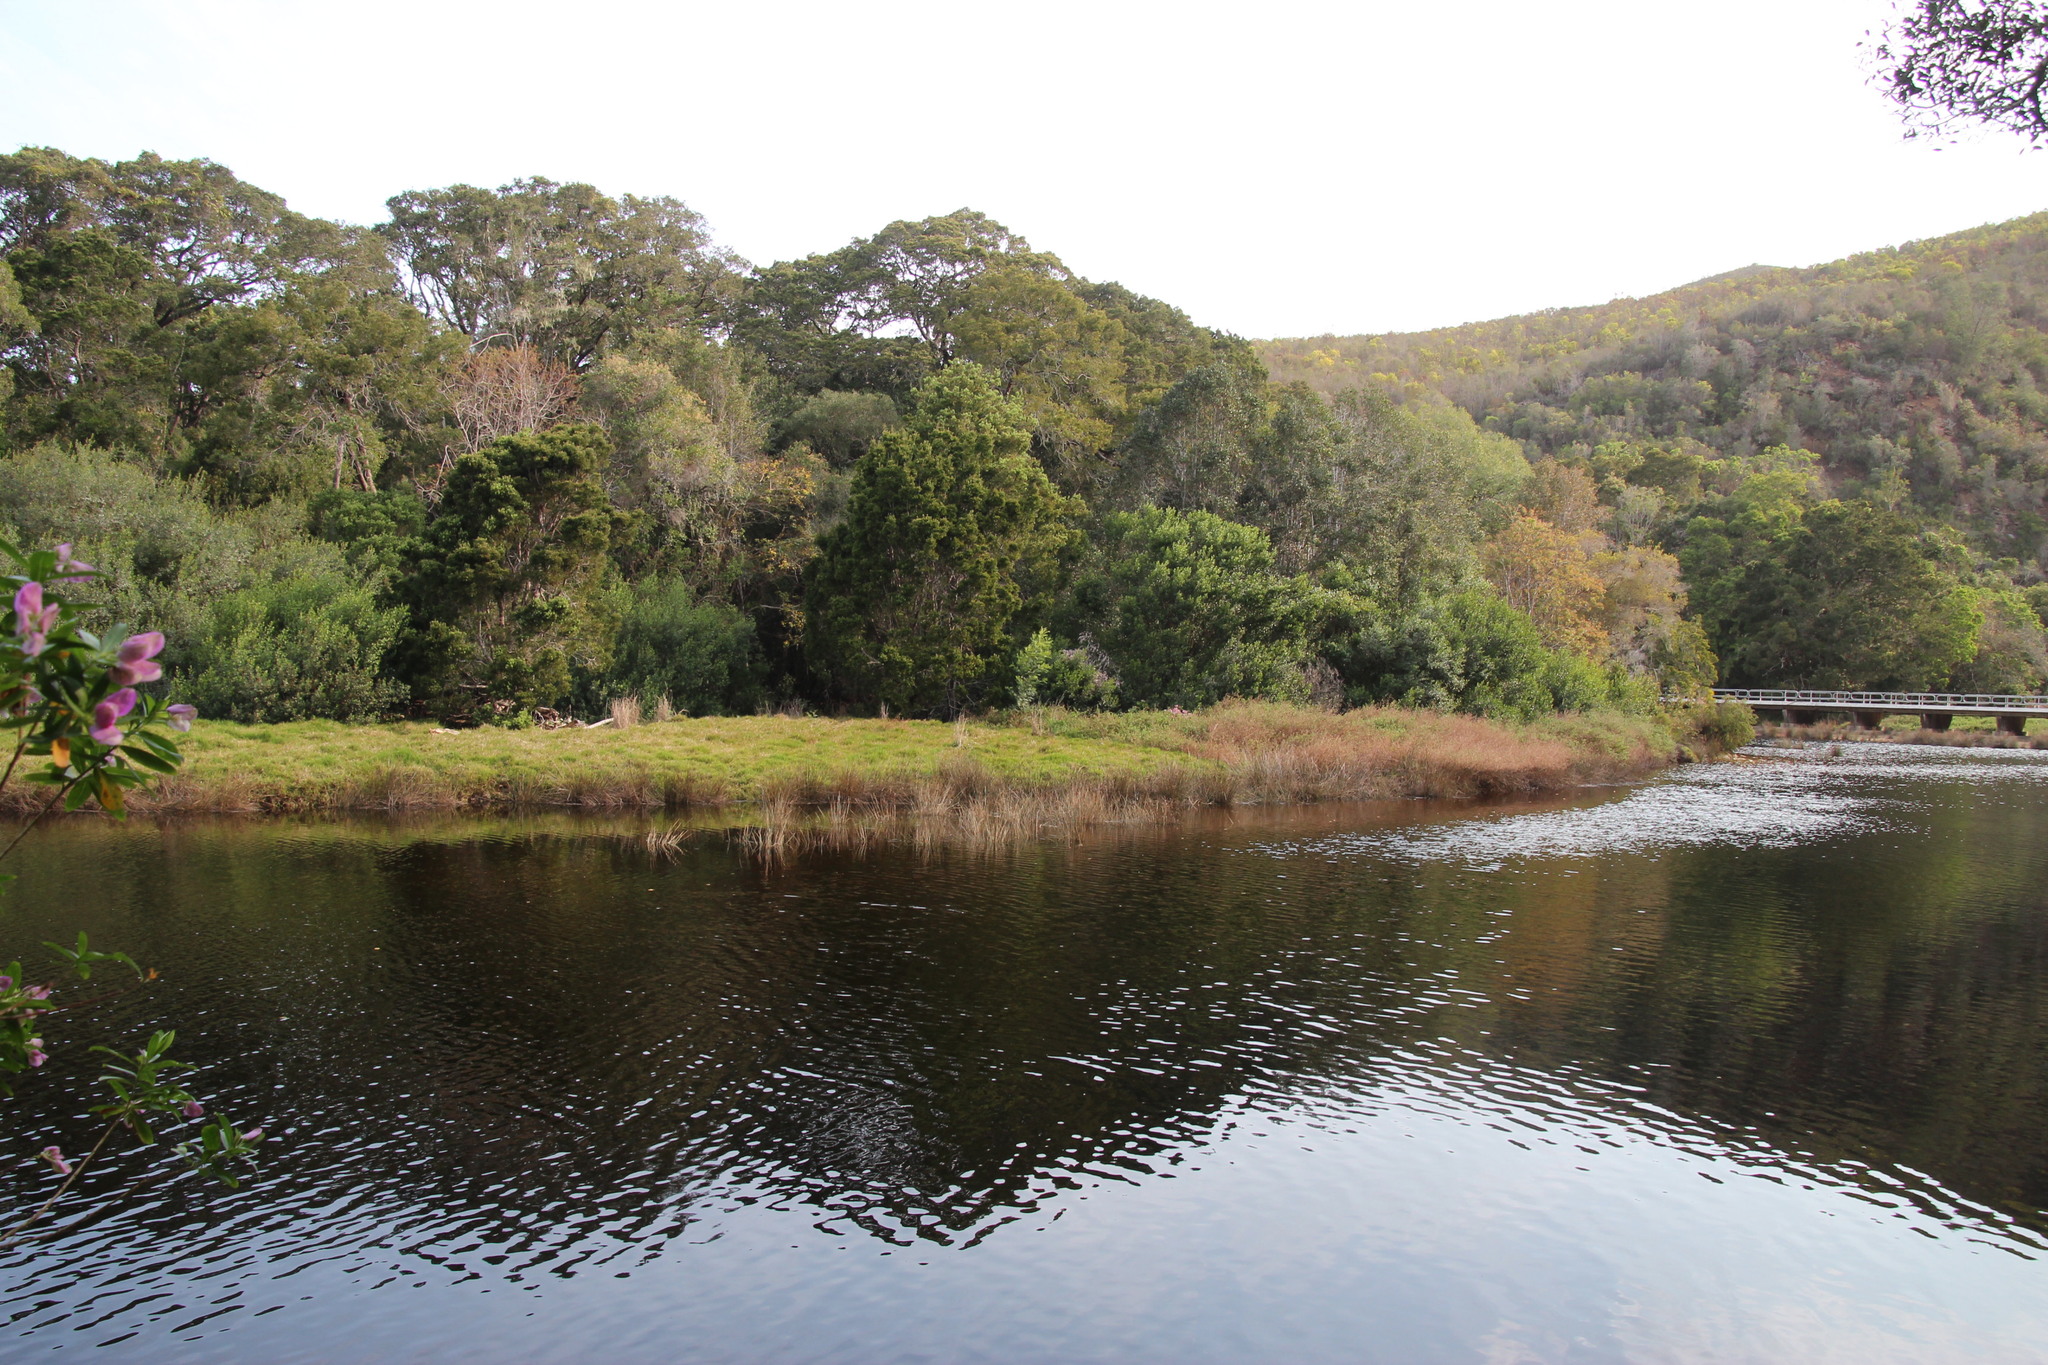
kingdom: Plantae
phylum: Tracheophyta
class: Magnoliopsida
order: Fabales
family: Fabaceae
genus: Acacia
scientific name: Acacia mearnsii
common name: Black wattle
